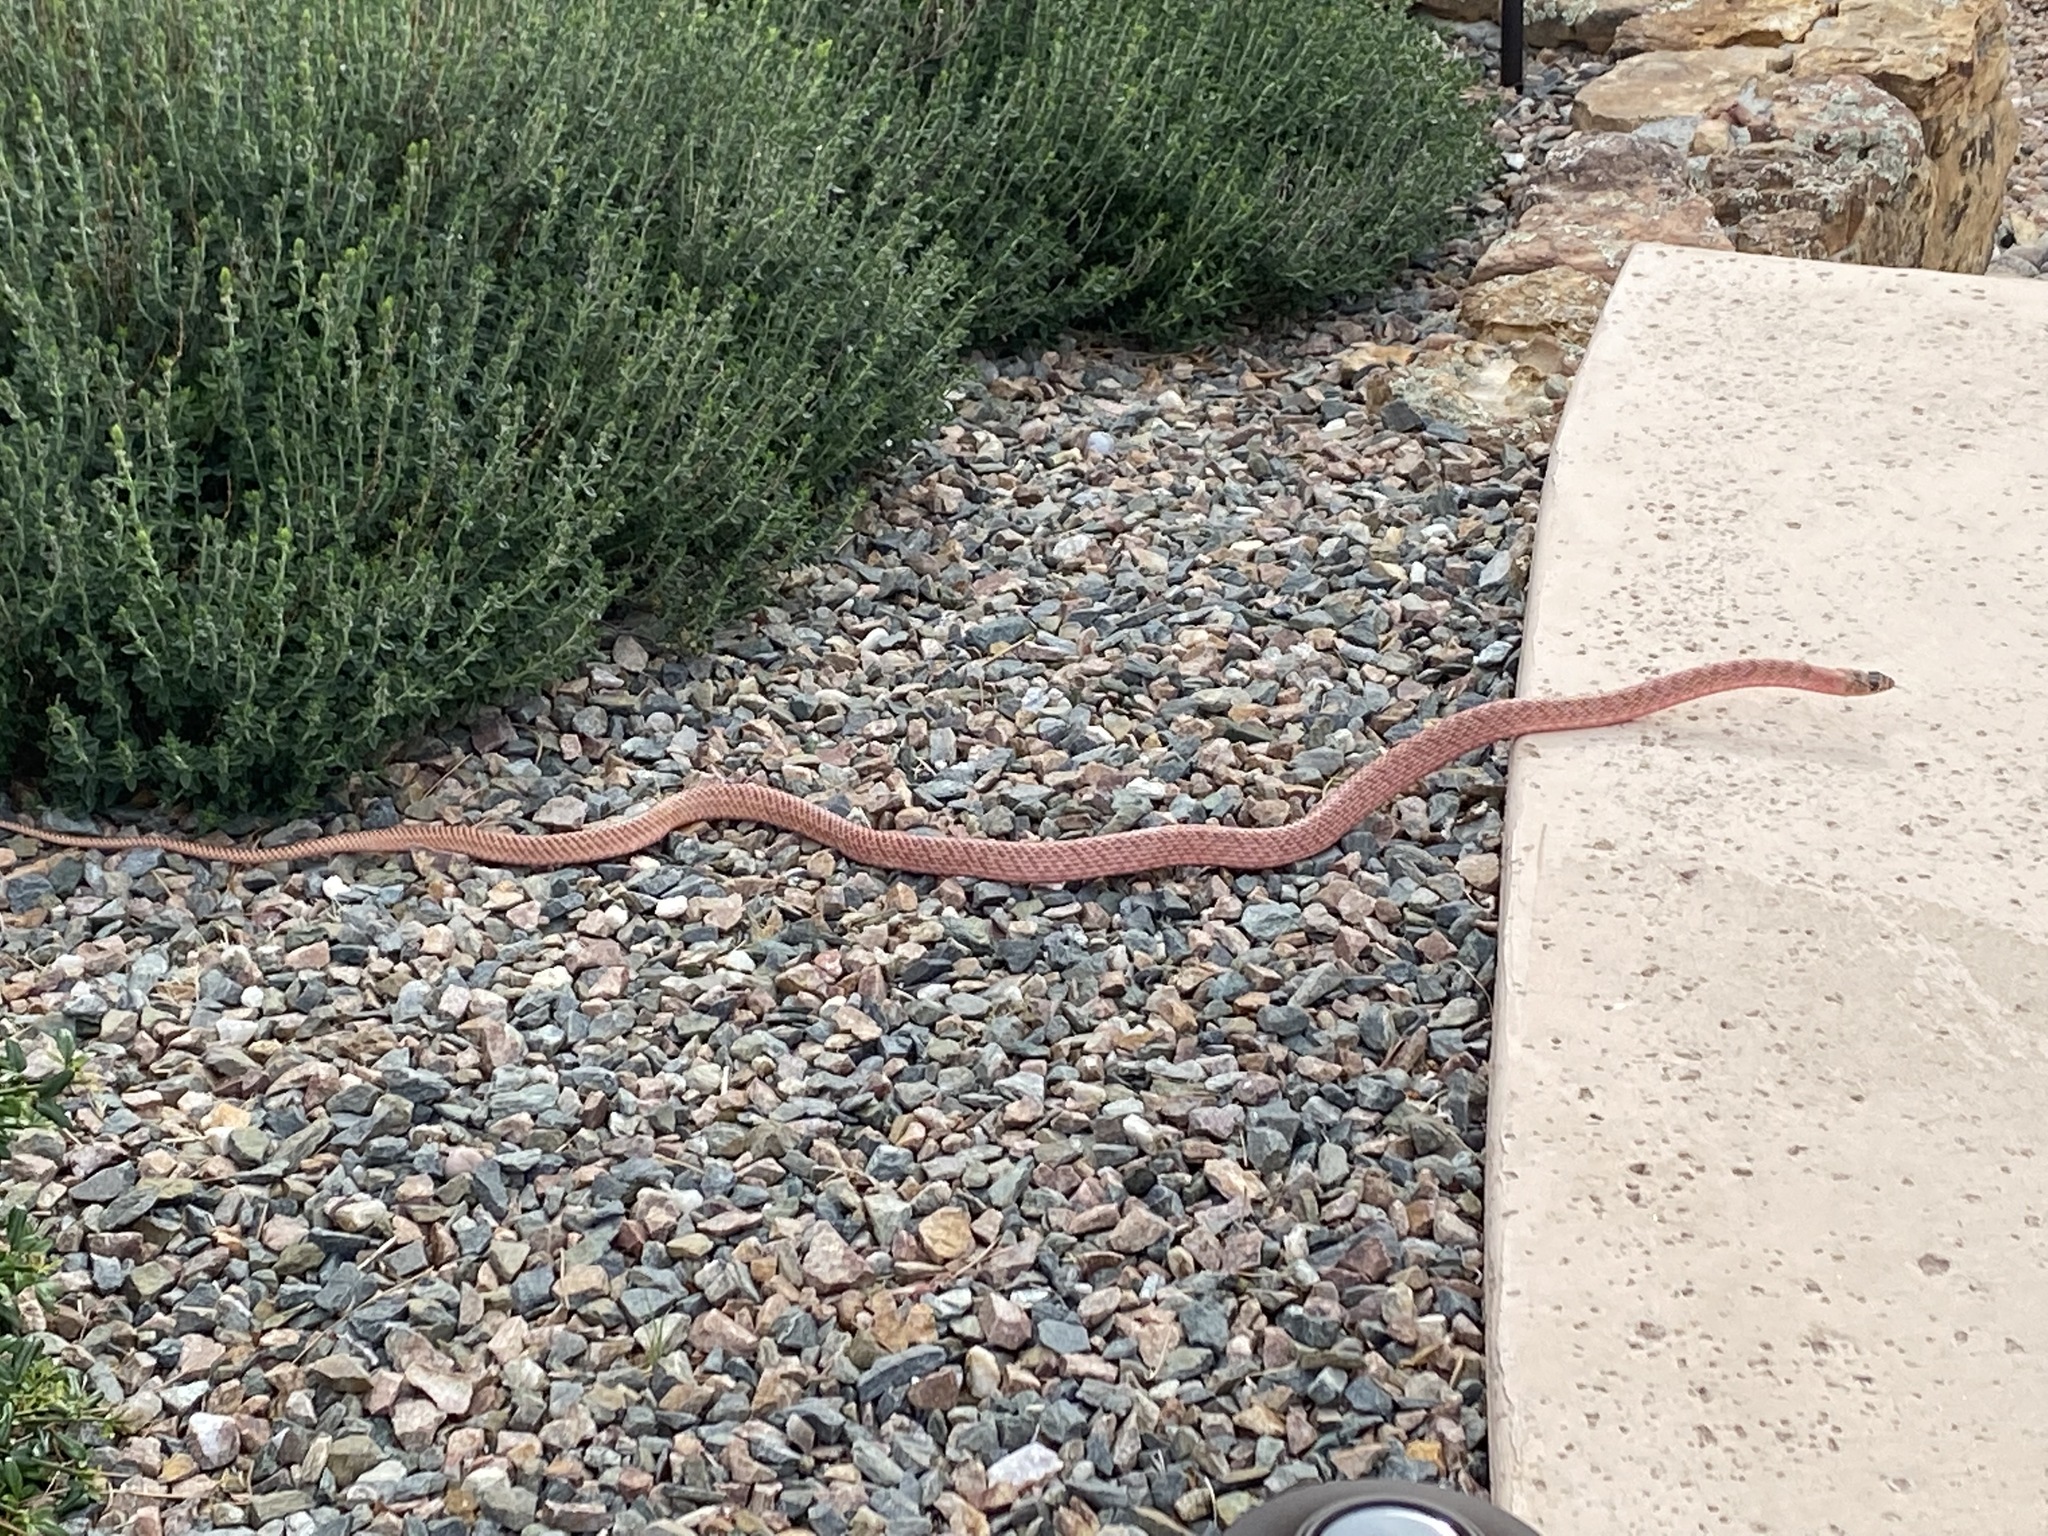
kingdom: Animalia
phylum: Chordata
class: Squamata
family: Colubridae
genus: Masticophis
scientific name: Masticophis flagellum
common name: Coachwhip
